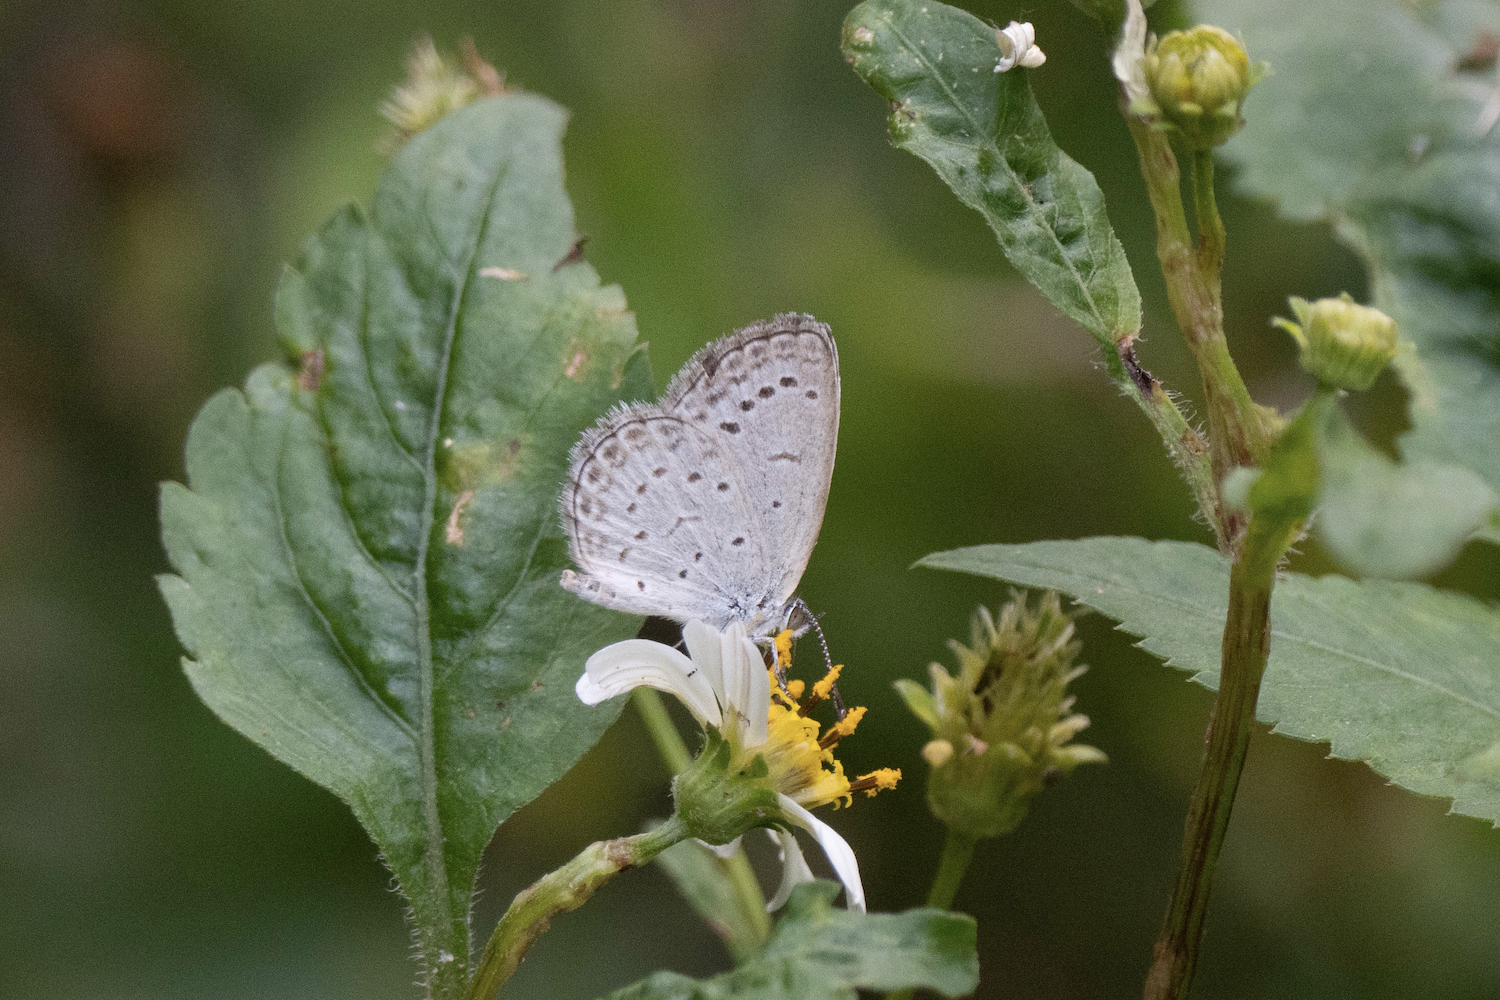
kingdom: Animalia
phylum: Arthropoda
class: Insecta
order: Lepidoptera
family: Lycaenidae
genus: Pseudozizeeria
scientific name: Pseudozizeeria maha
